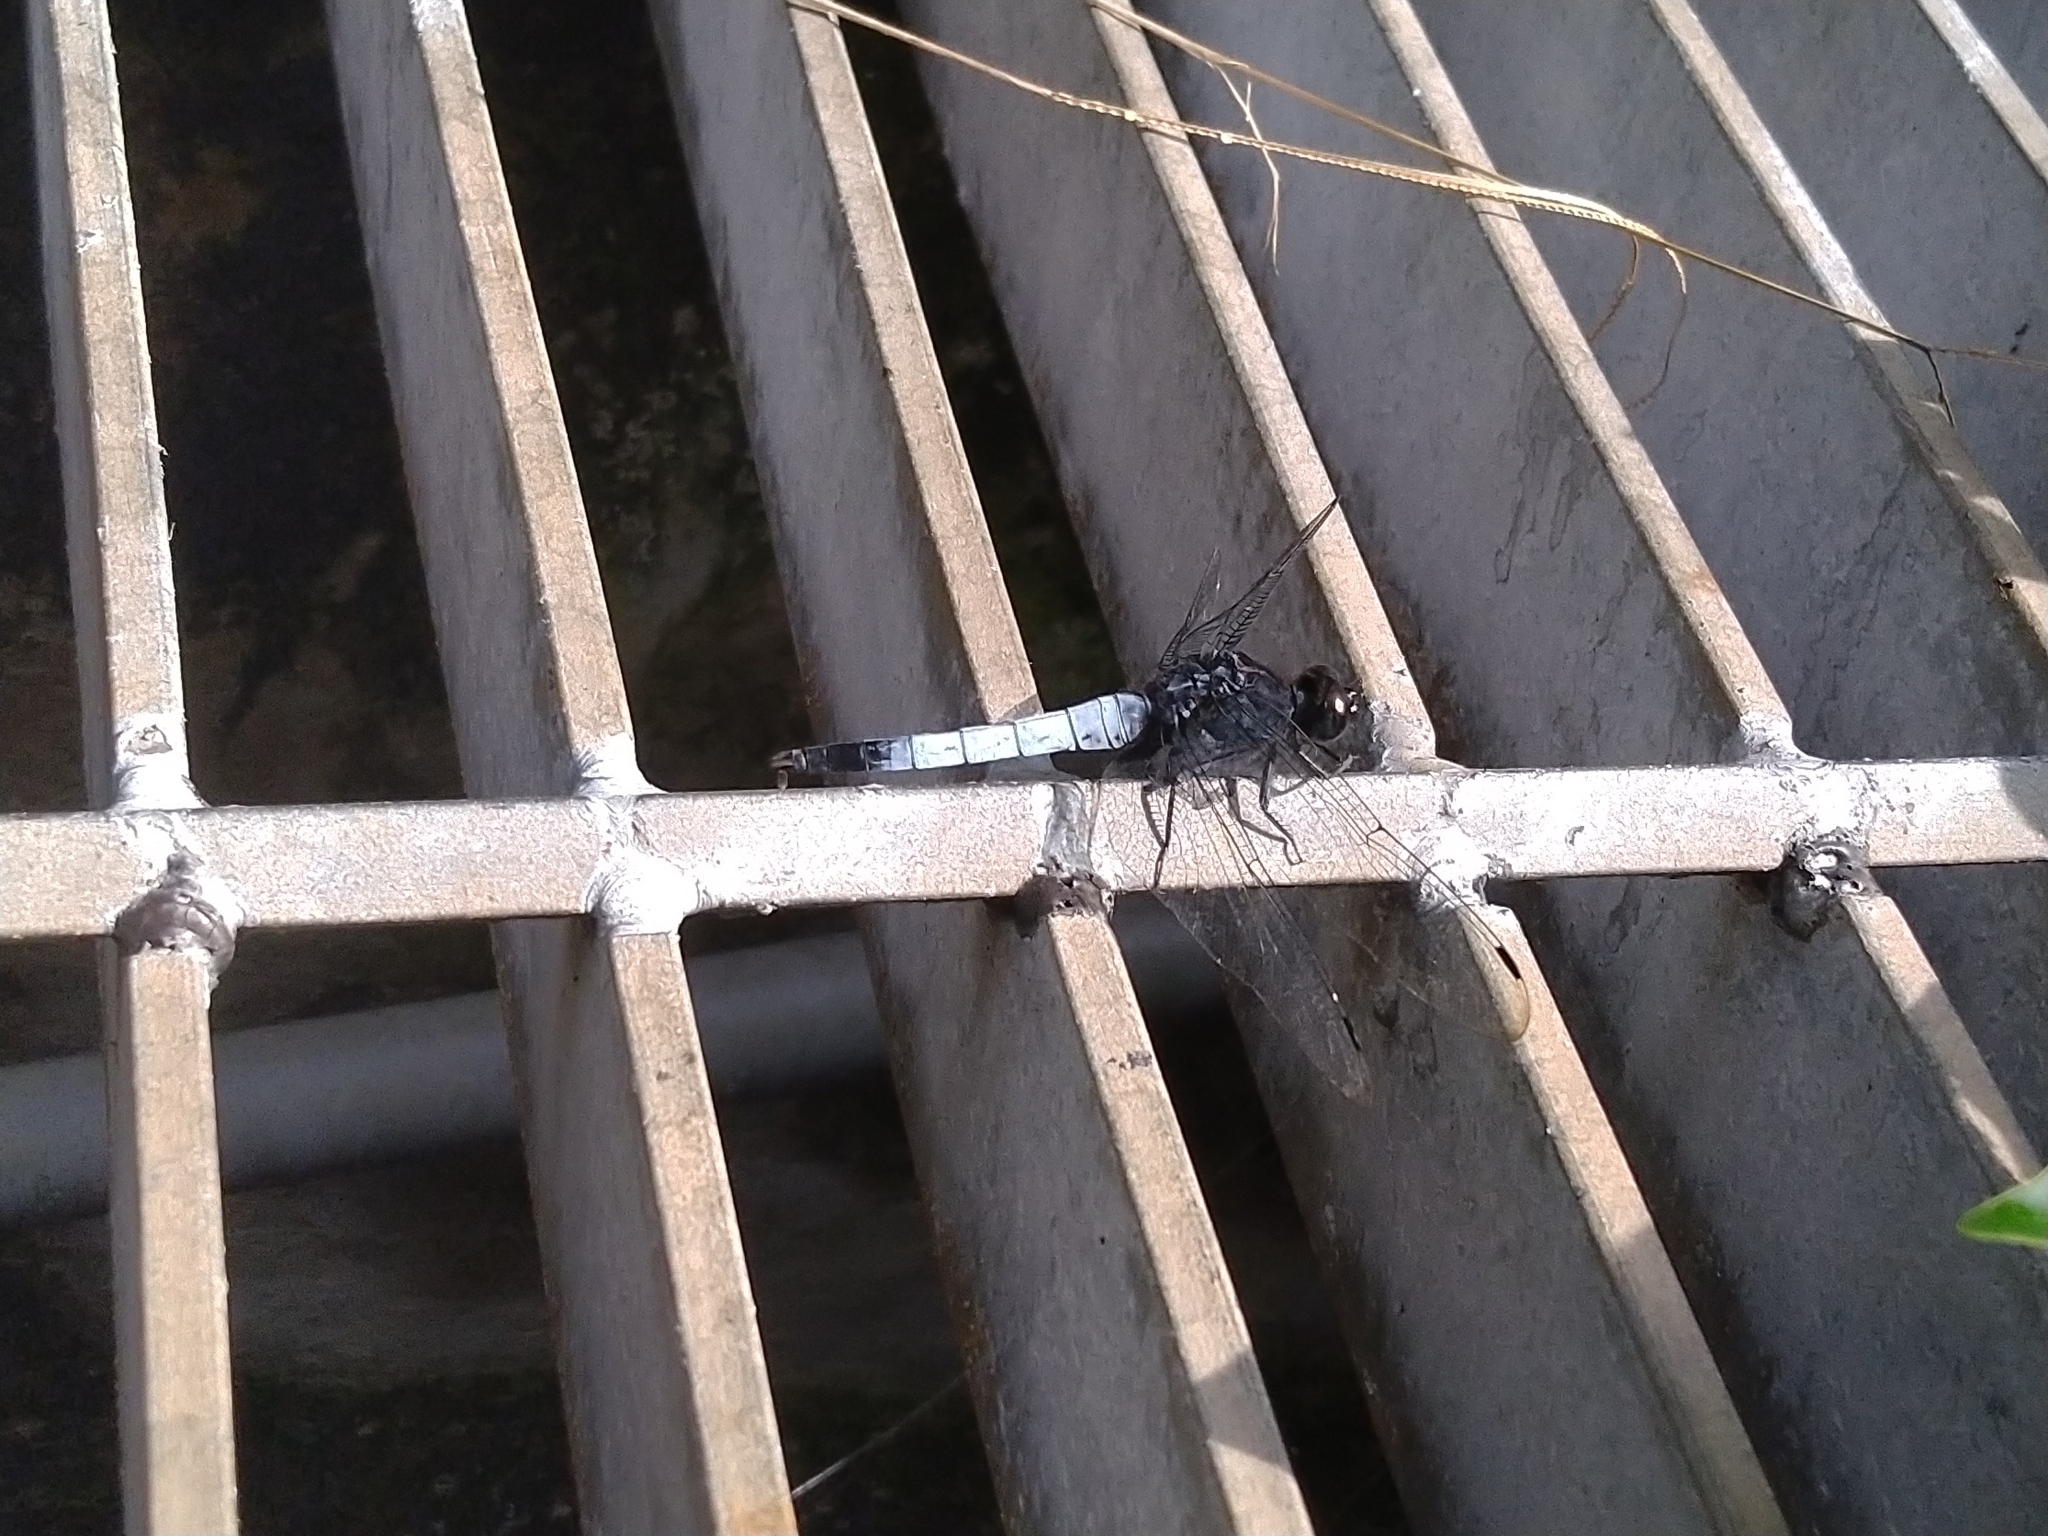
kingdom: Animalia
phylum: Arthropoda
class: Insecta
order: Odonata
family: Libellulidae
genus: Orthetrum
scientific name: Orthetrum triangulare
